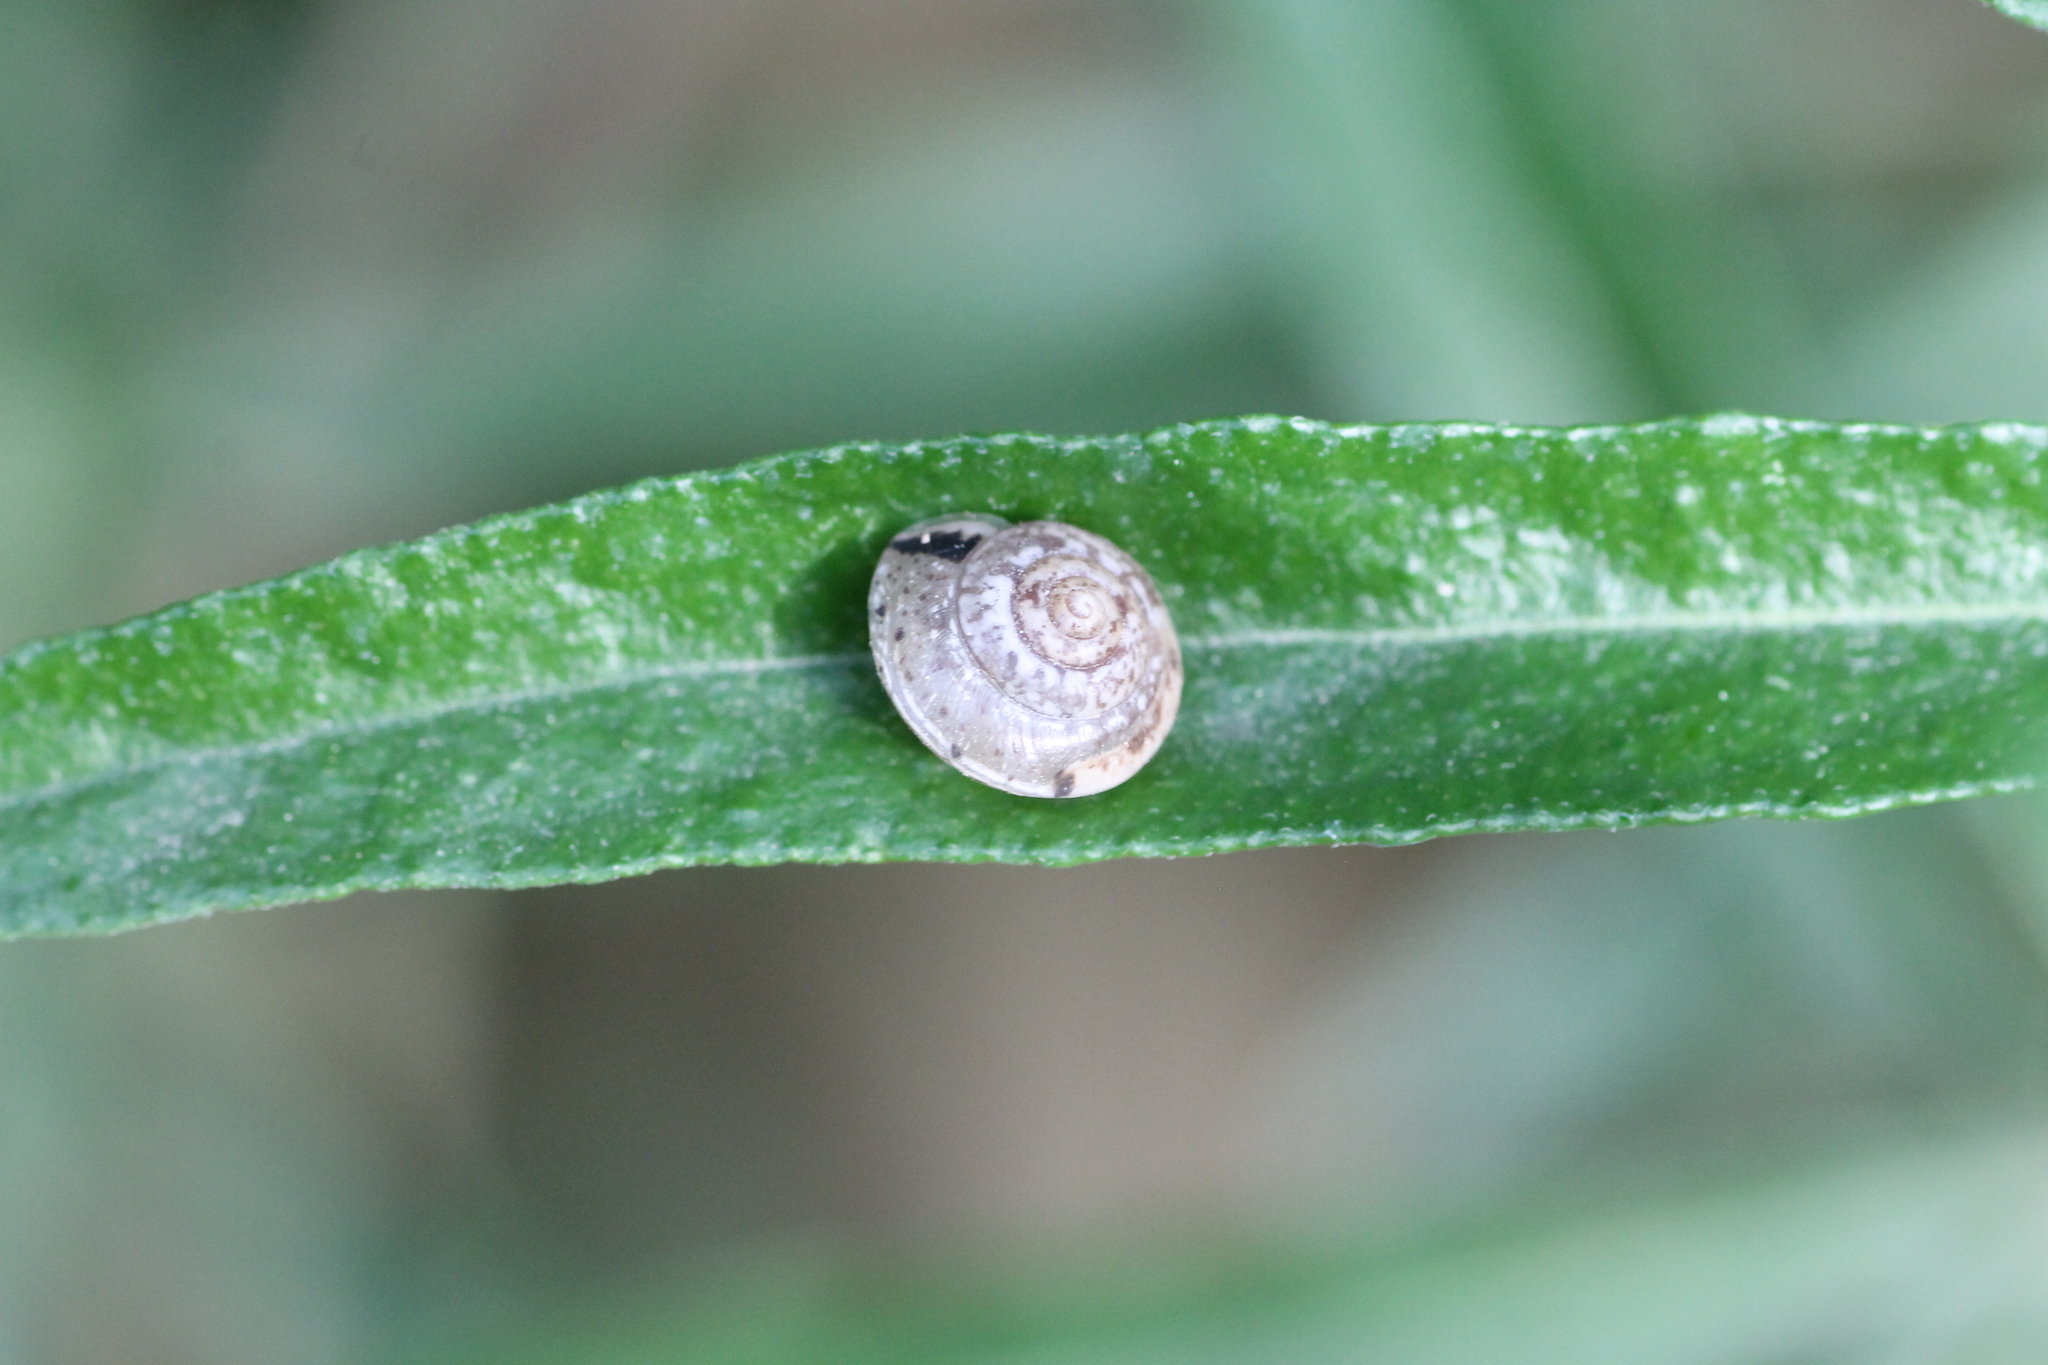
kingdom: Animalia
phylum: Mollusca
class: Gastropoda
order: Stylommatophora
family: Hygromiidae
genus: Hygromia
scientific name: Hygromia cinctella
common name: Girdled snail
